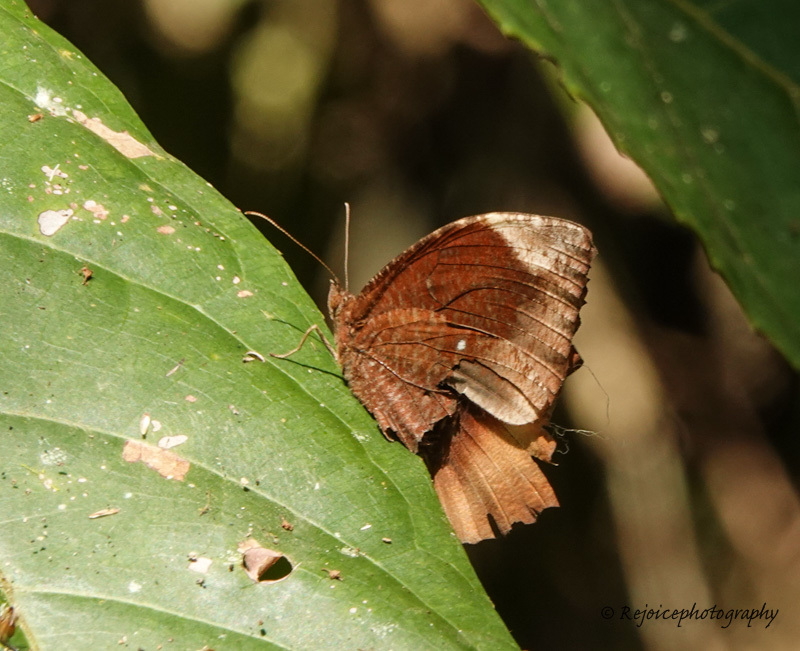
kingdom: Animalia
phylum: Arthropoda
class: Insecta
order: Lepidoptera
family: Nymphalidae
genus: Elymnias
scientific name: Elymnias hypermnestra
